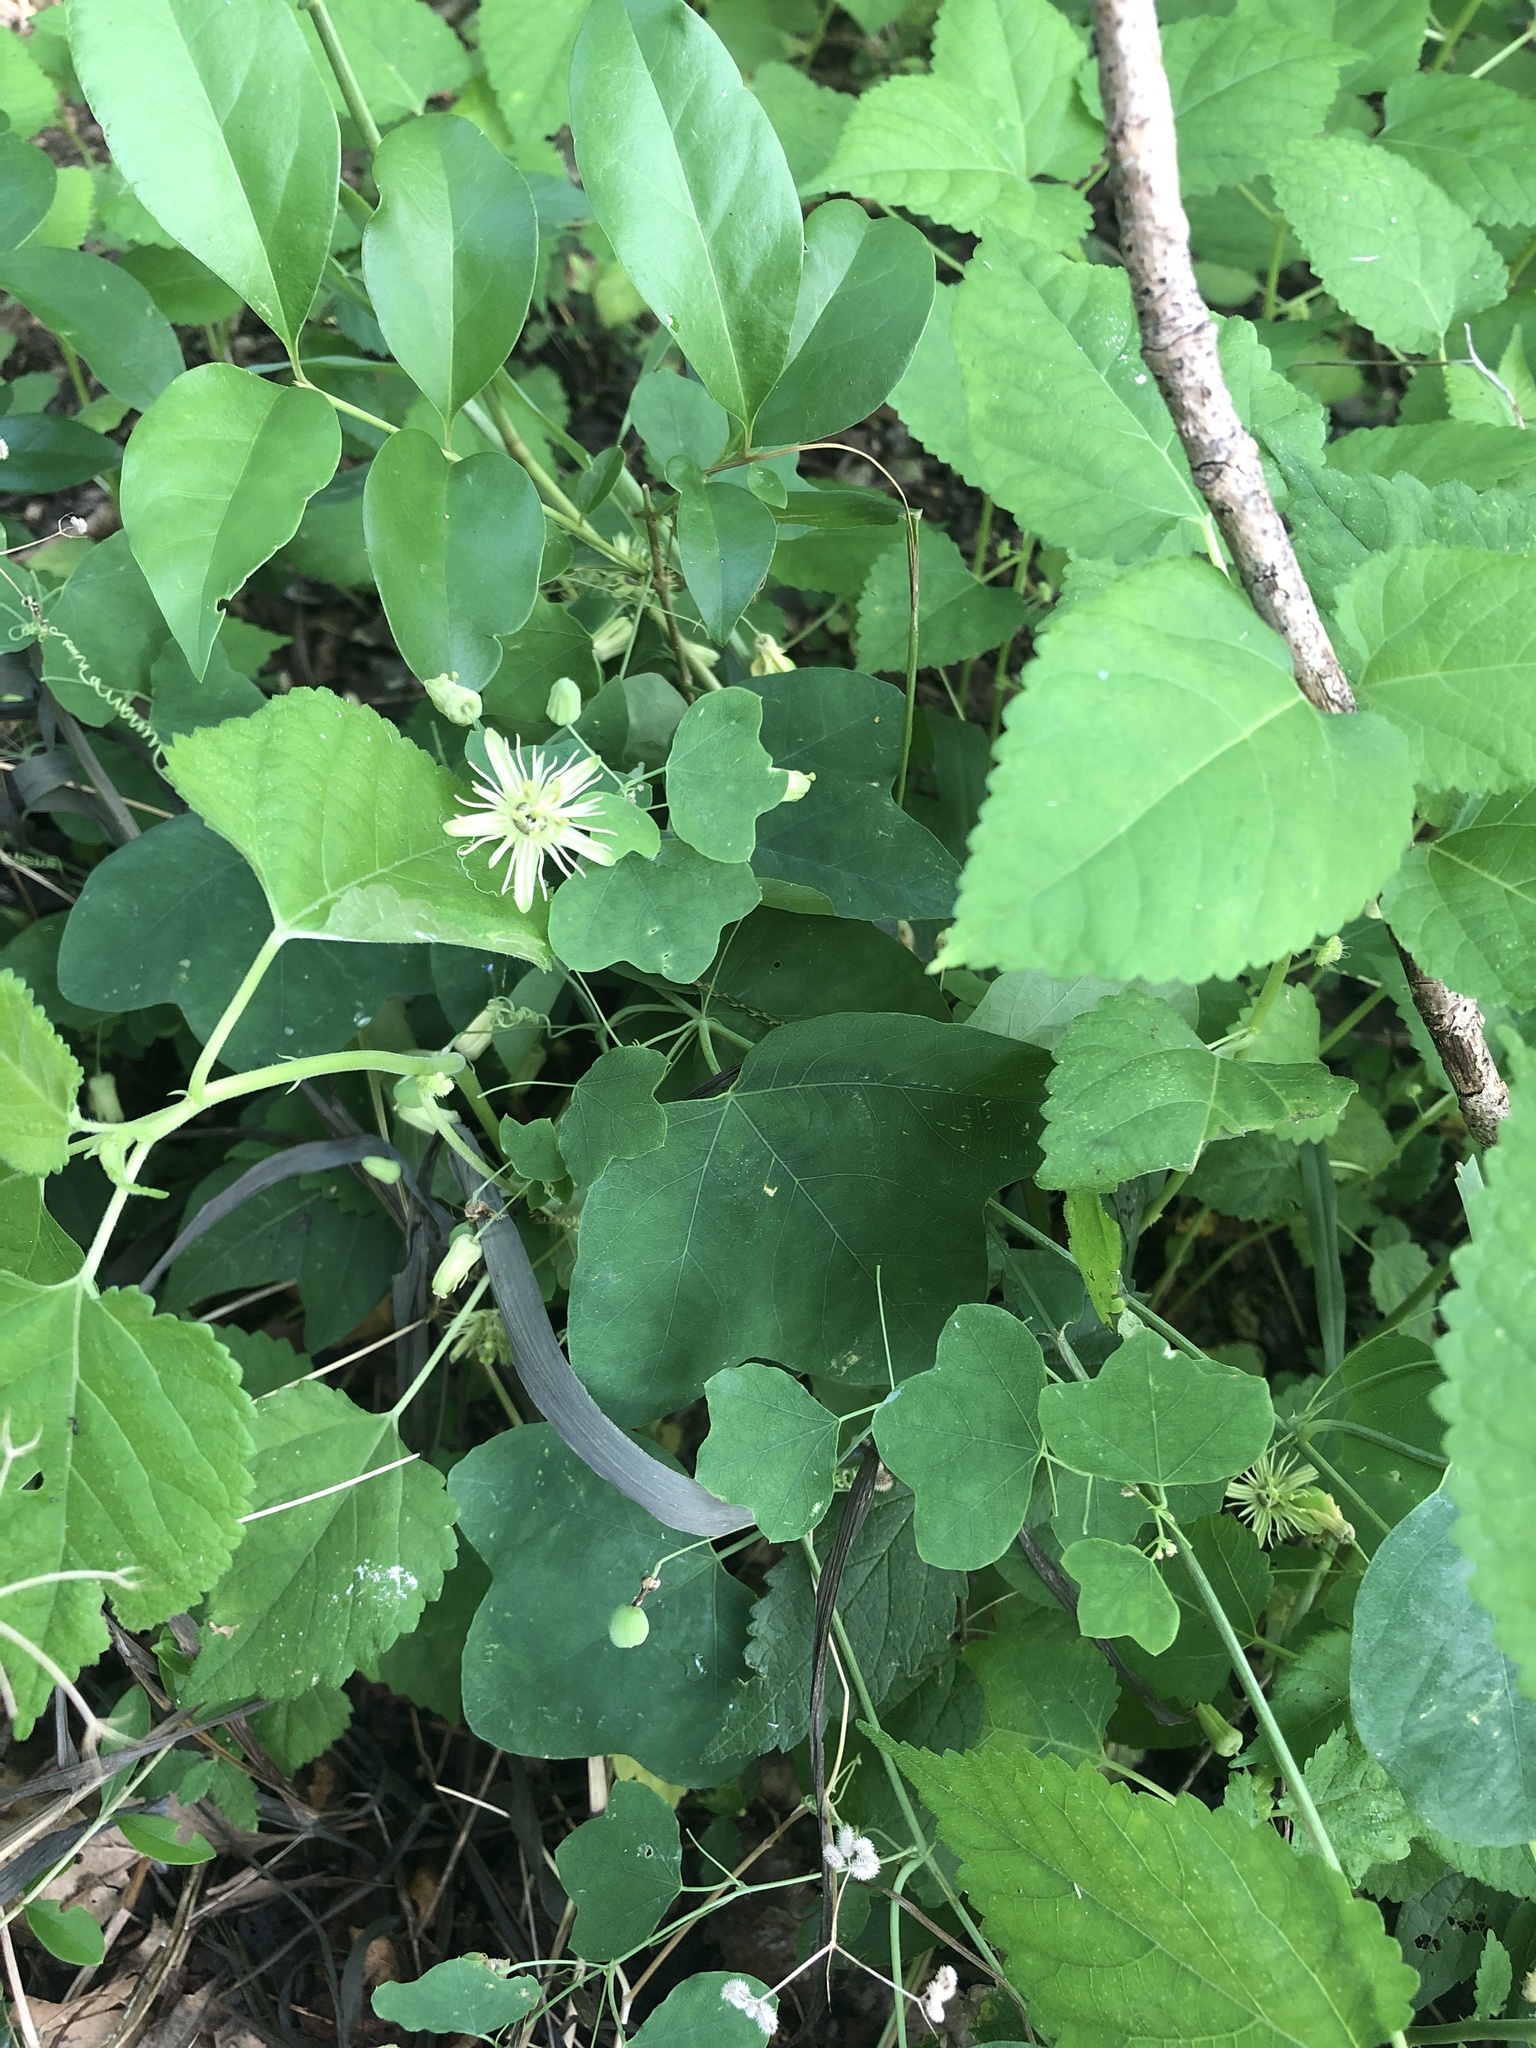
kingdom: Plantae
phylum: Tracheophyta
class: Magnoliopsida
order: Malpighiales
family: Passifloraceae
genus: Passiflora
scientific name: Passiflora lutea
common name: Yellow passionflower
